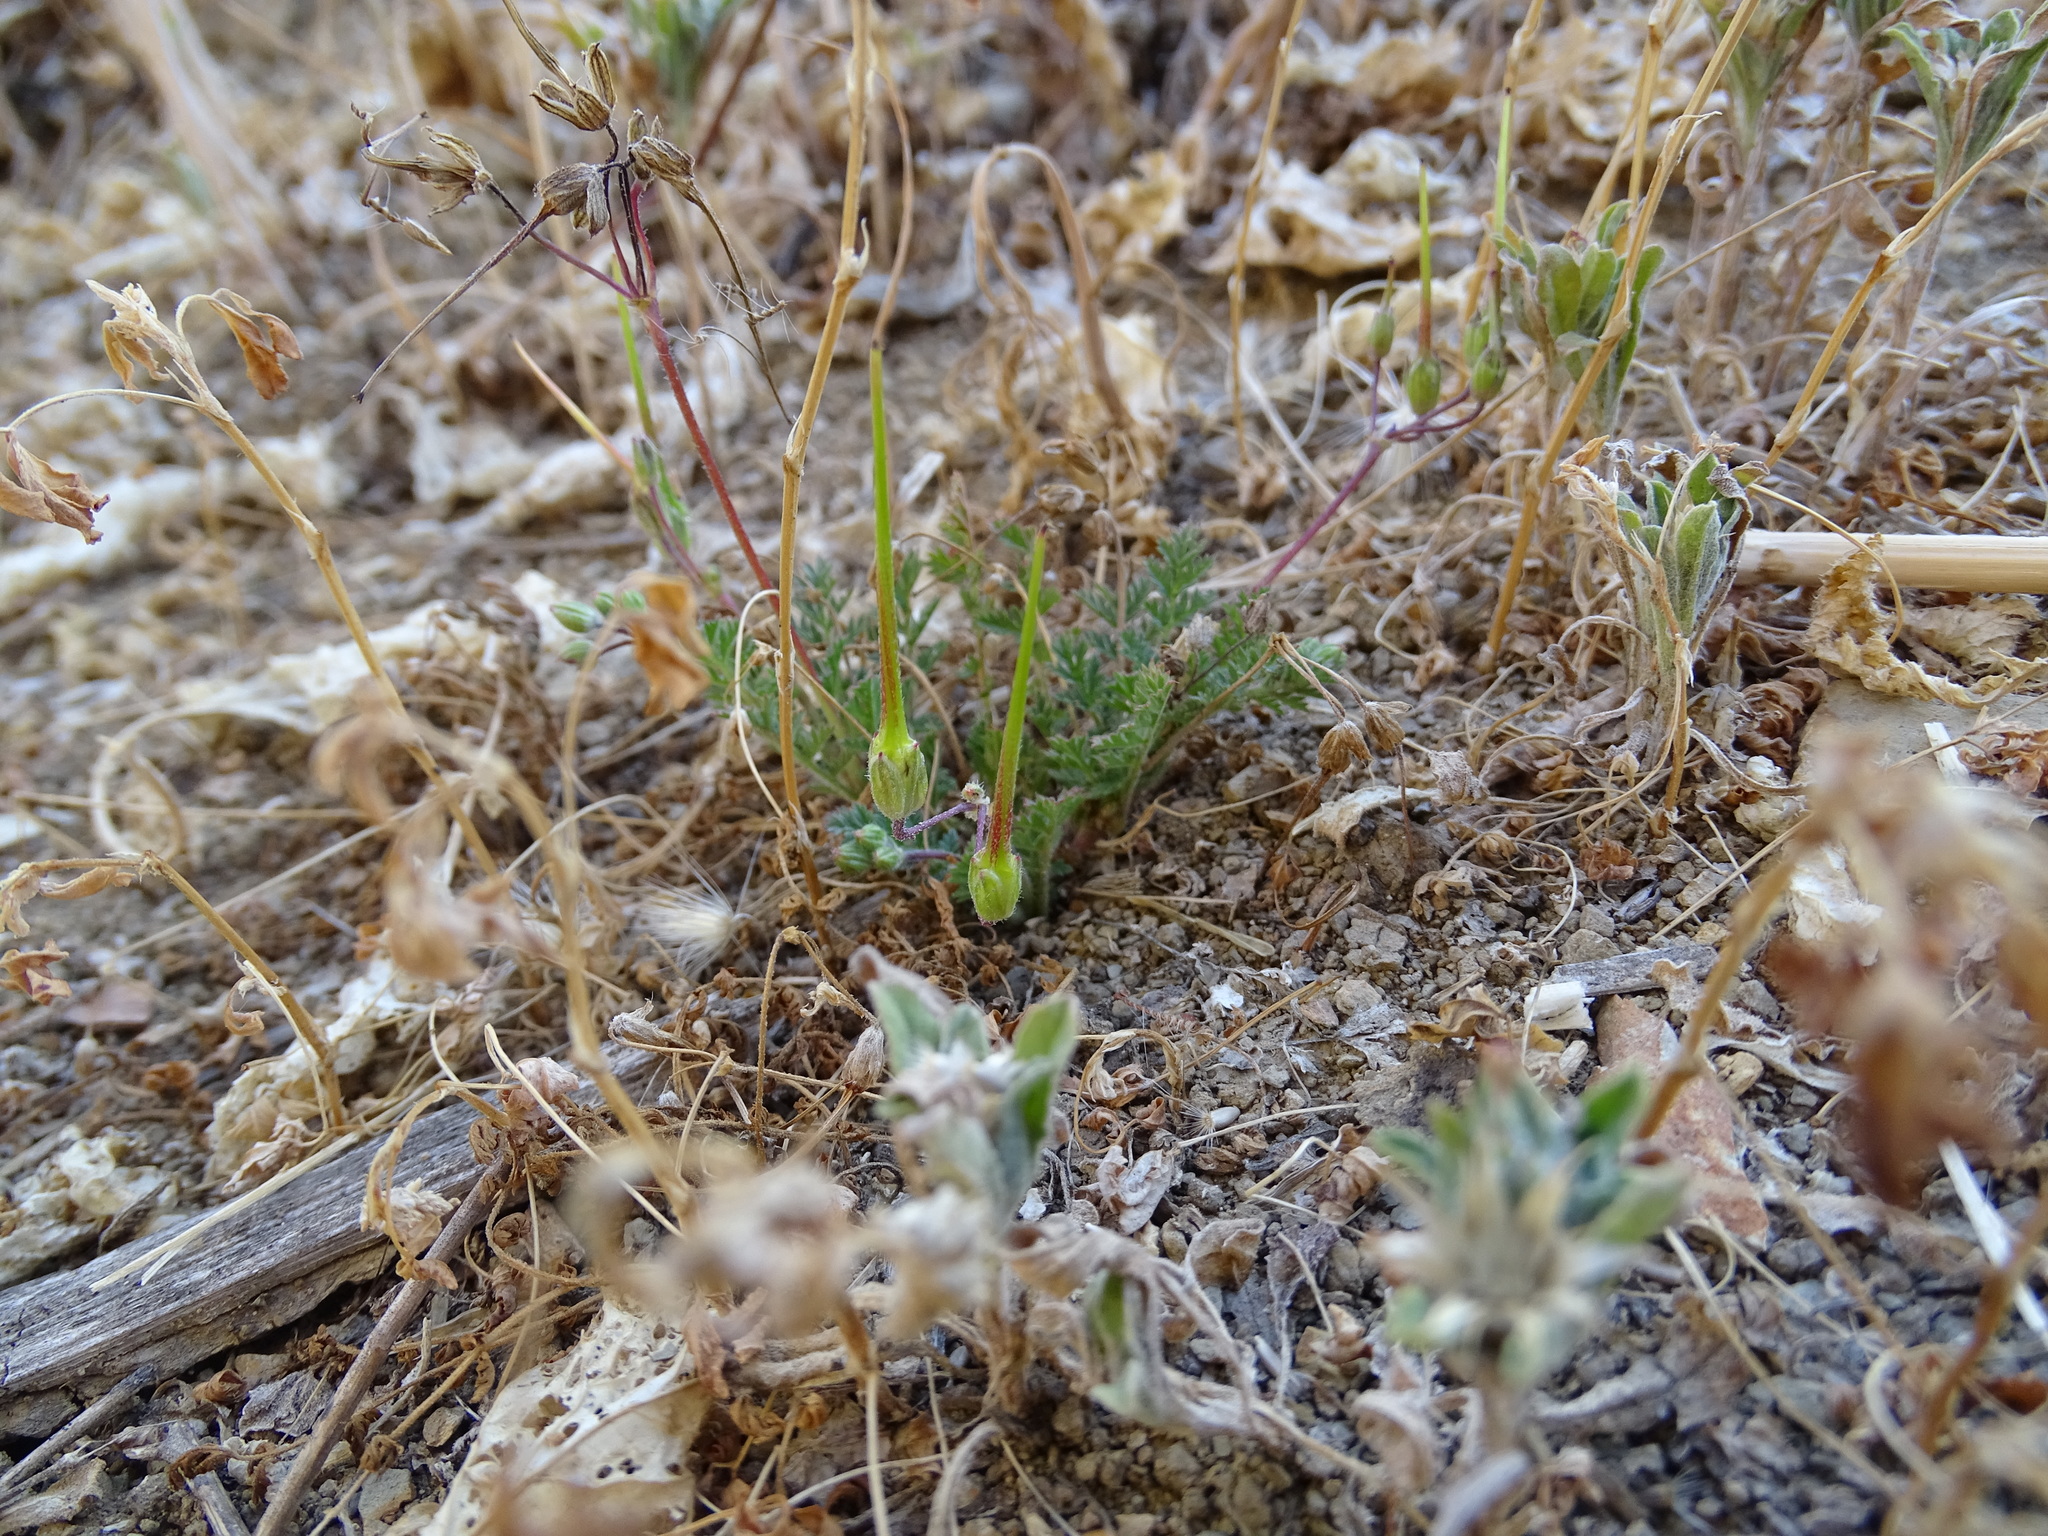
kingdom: Plantae
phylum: Tracheophyta
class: Magnoliopsida
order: Geraniales
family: Geraniaceae
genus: Erodium
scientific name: Erodium cicutarium
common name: Common stork's-bill
